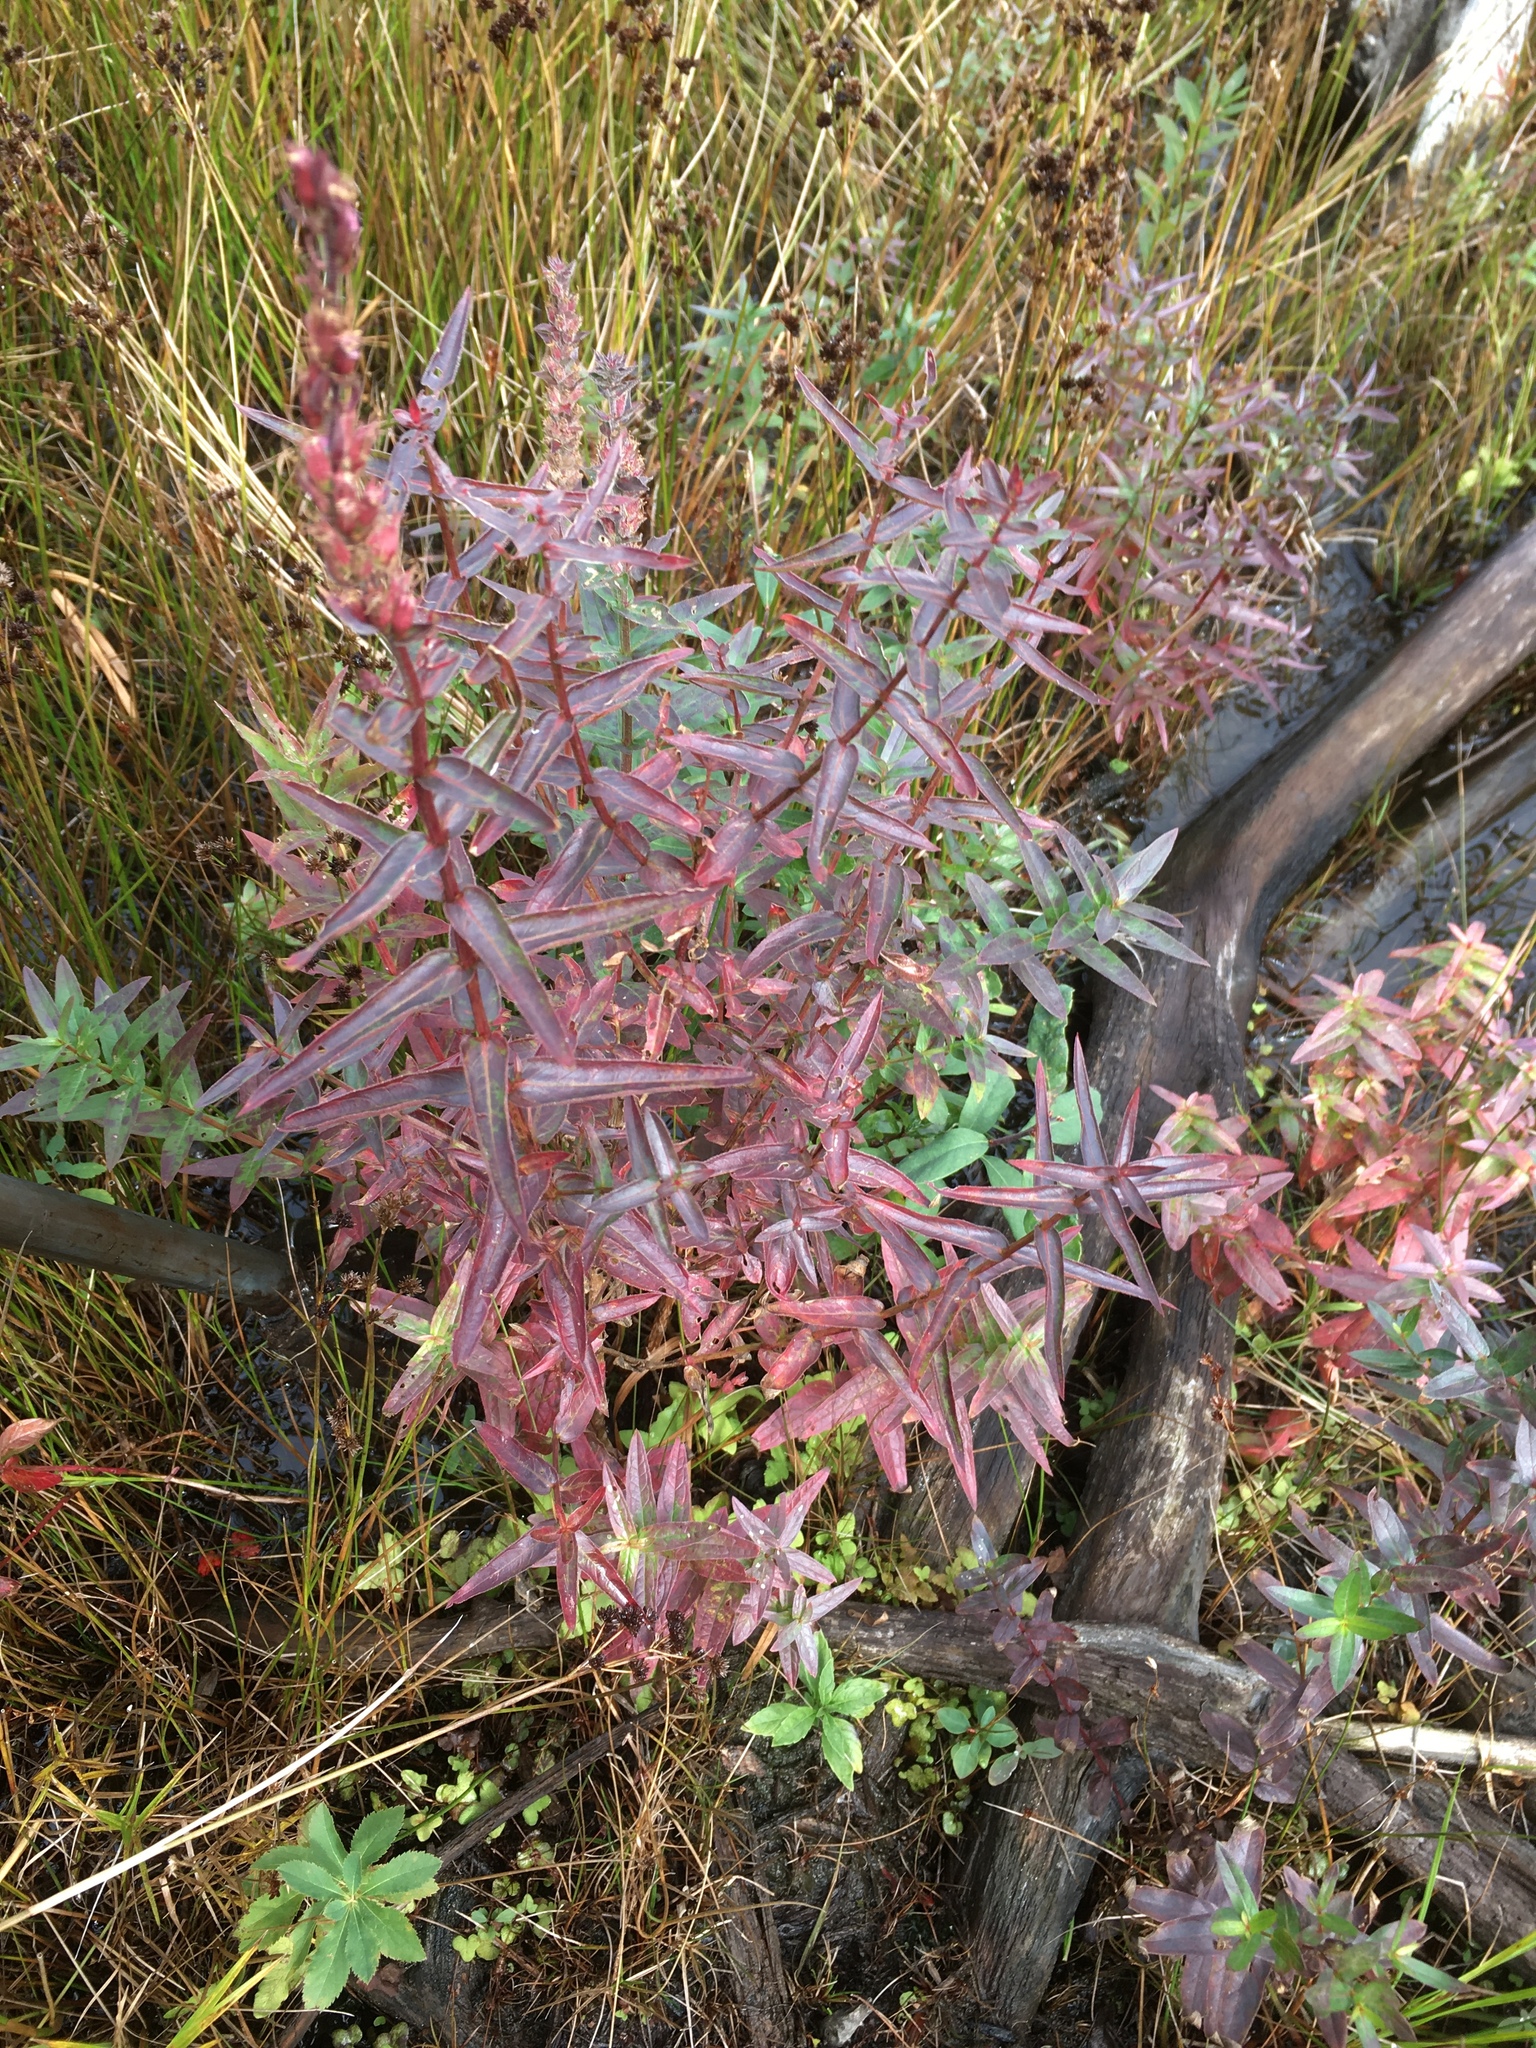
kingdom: Plantae
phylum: Tracheophyta
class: Magnoliopsida
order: Myrtales
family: Lythraceae
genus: Lythrum
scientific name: Lythrum salicaria
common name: Purple loosestrife
